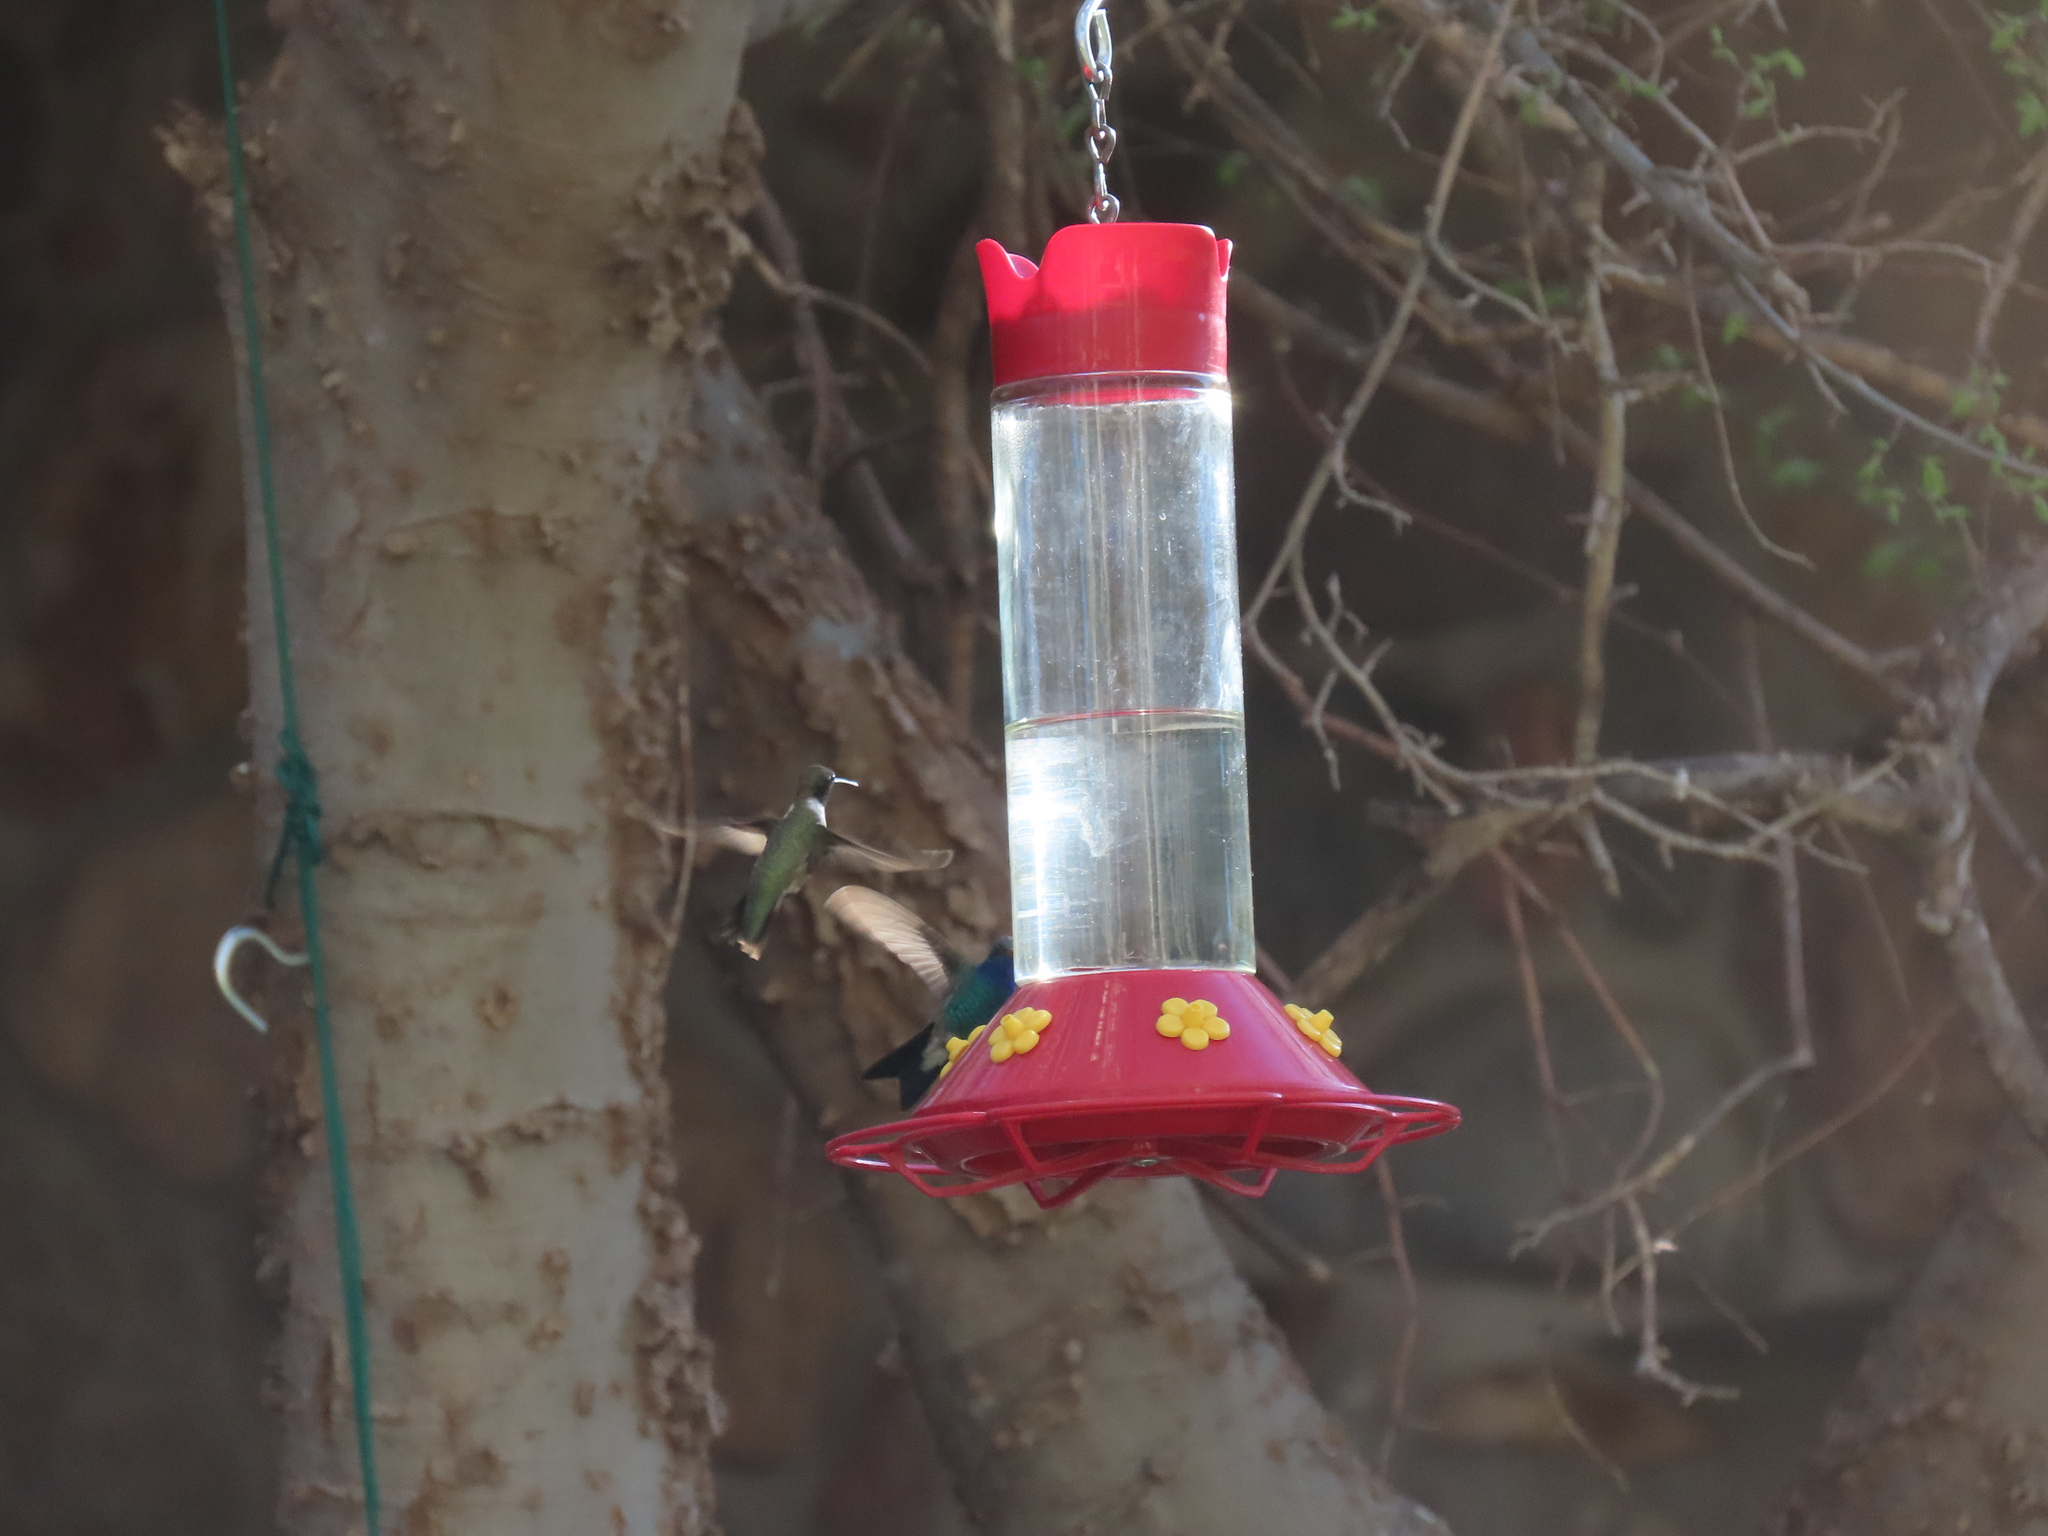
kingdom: Animalia
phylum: Chordata
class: Aves
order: Apodiformes
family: Trochilidae
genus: Archilochus
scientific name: Archilochus alexandri
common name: Black-chinned hummingbird
